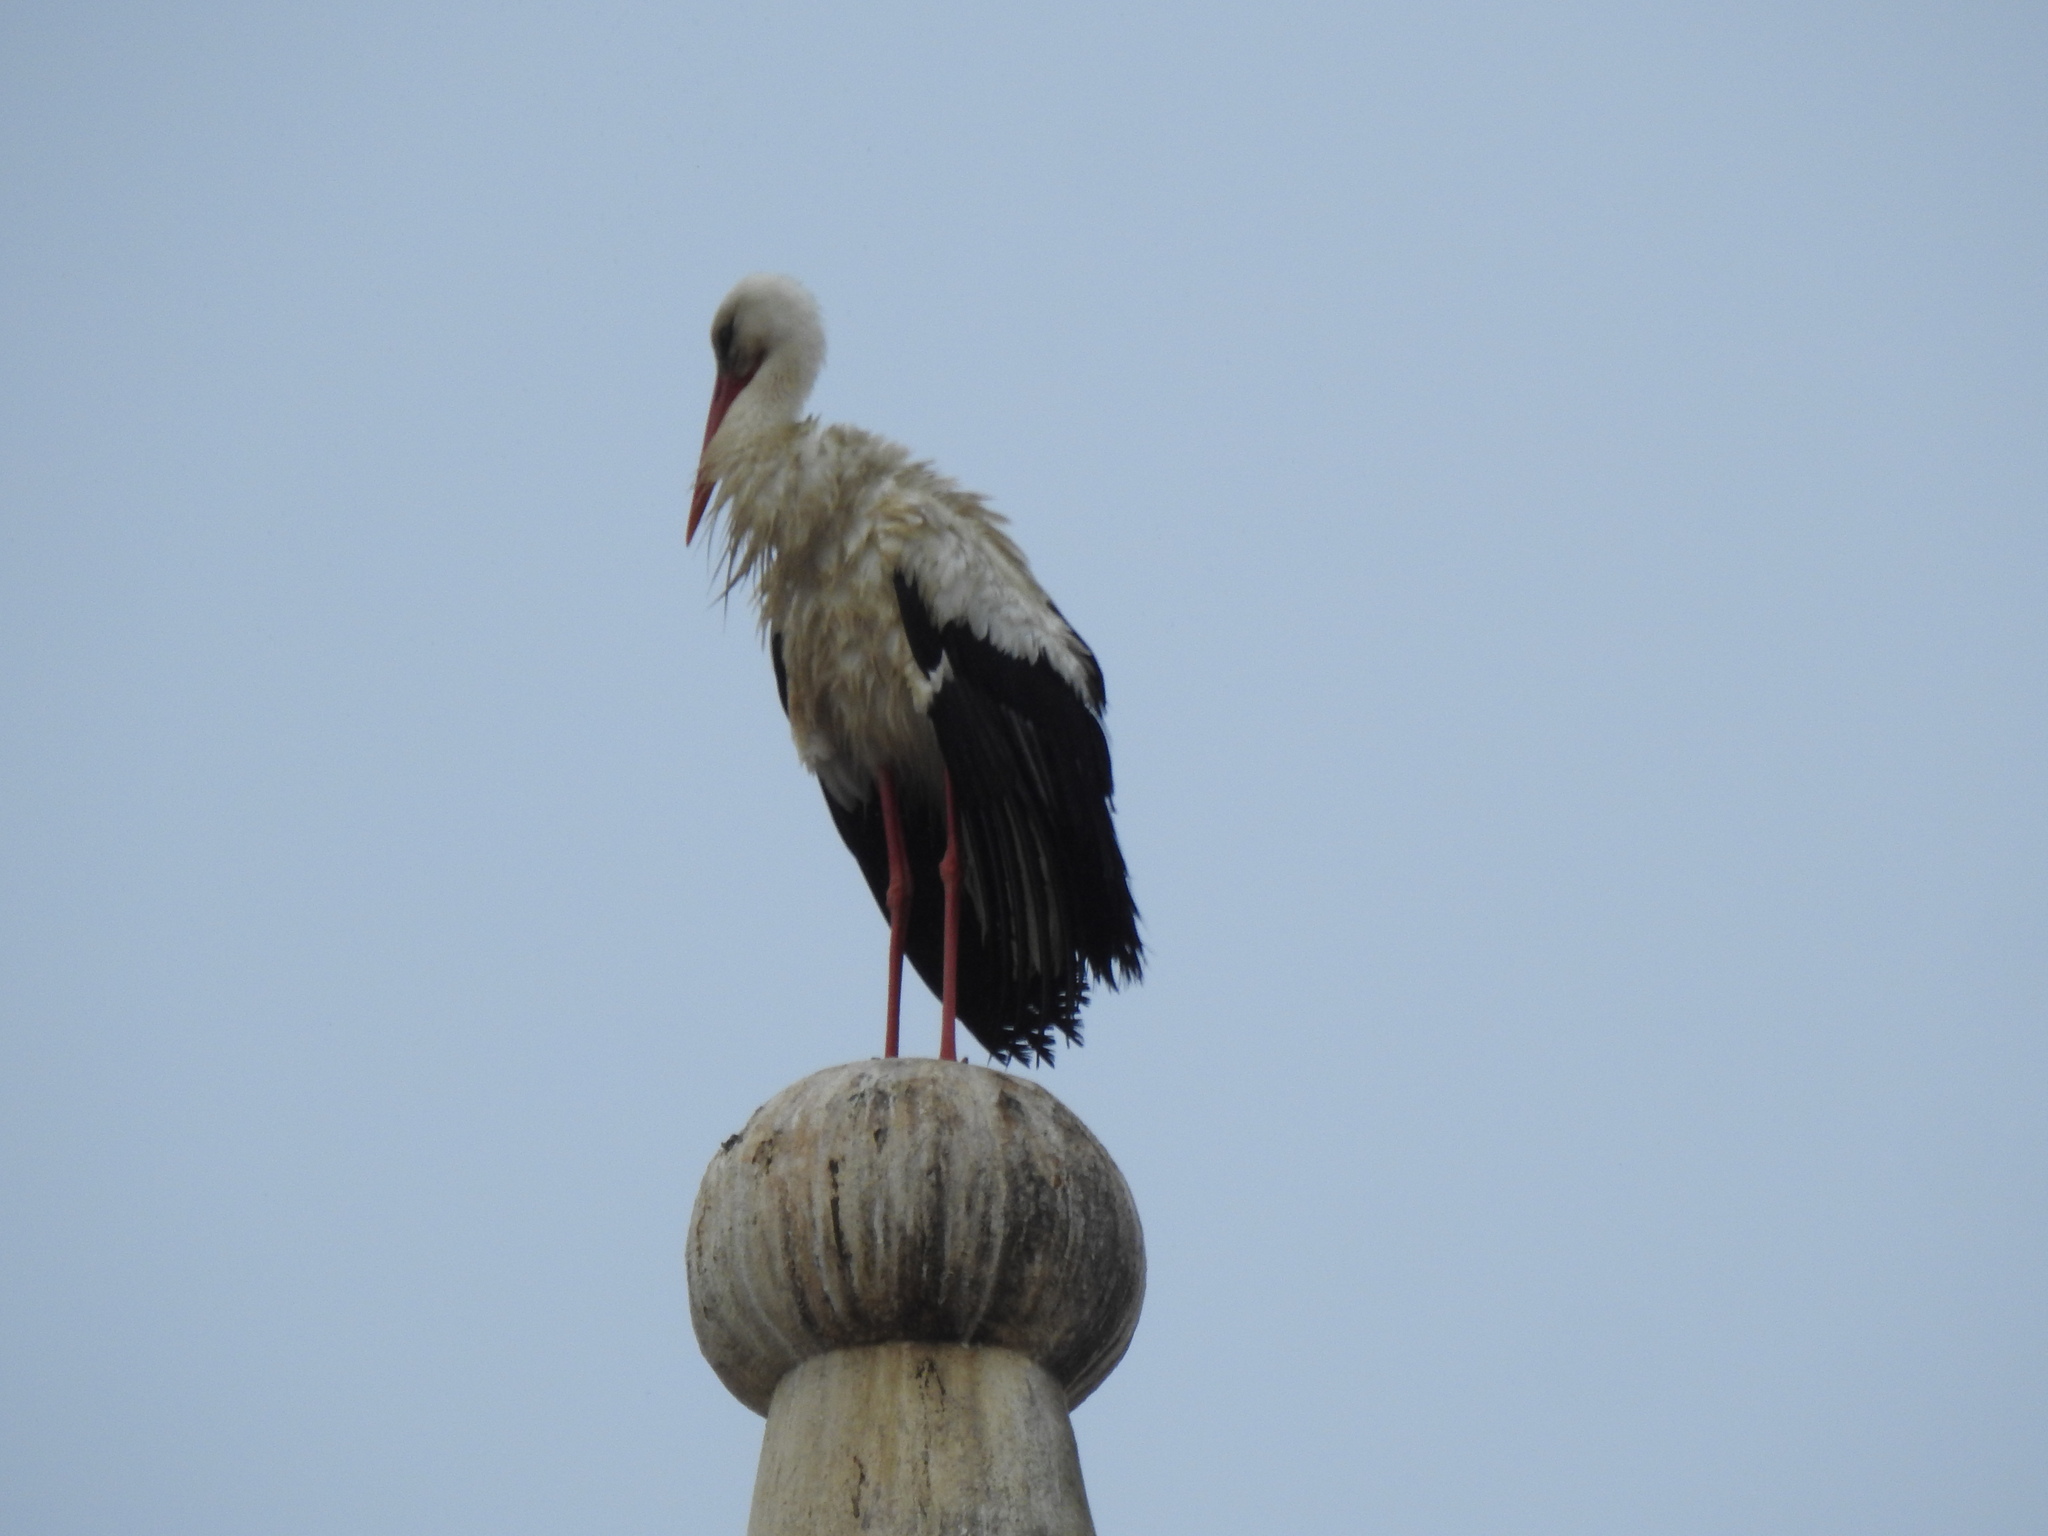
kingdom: Animalia
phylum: Chordata
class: Aves
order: Ciconiiformes
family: Ciconiidae
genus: Ciconia
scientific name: Ciconia ciconia
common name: White stork
